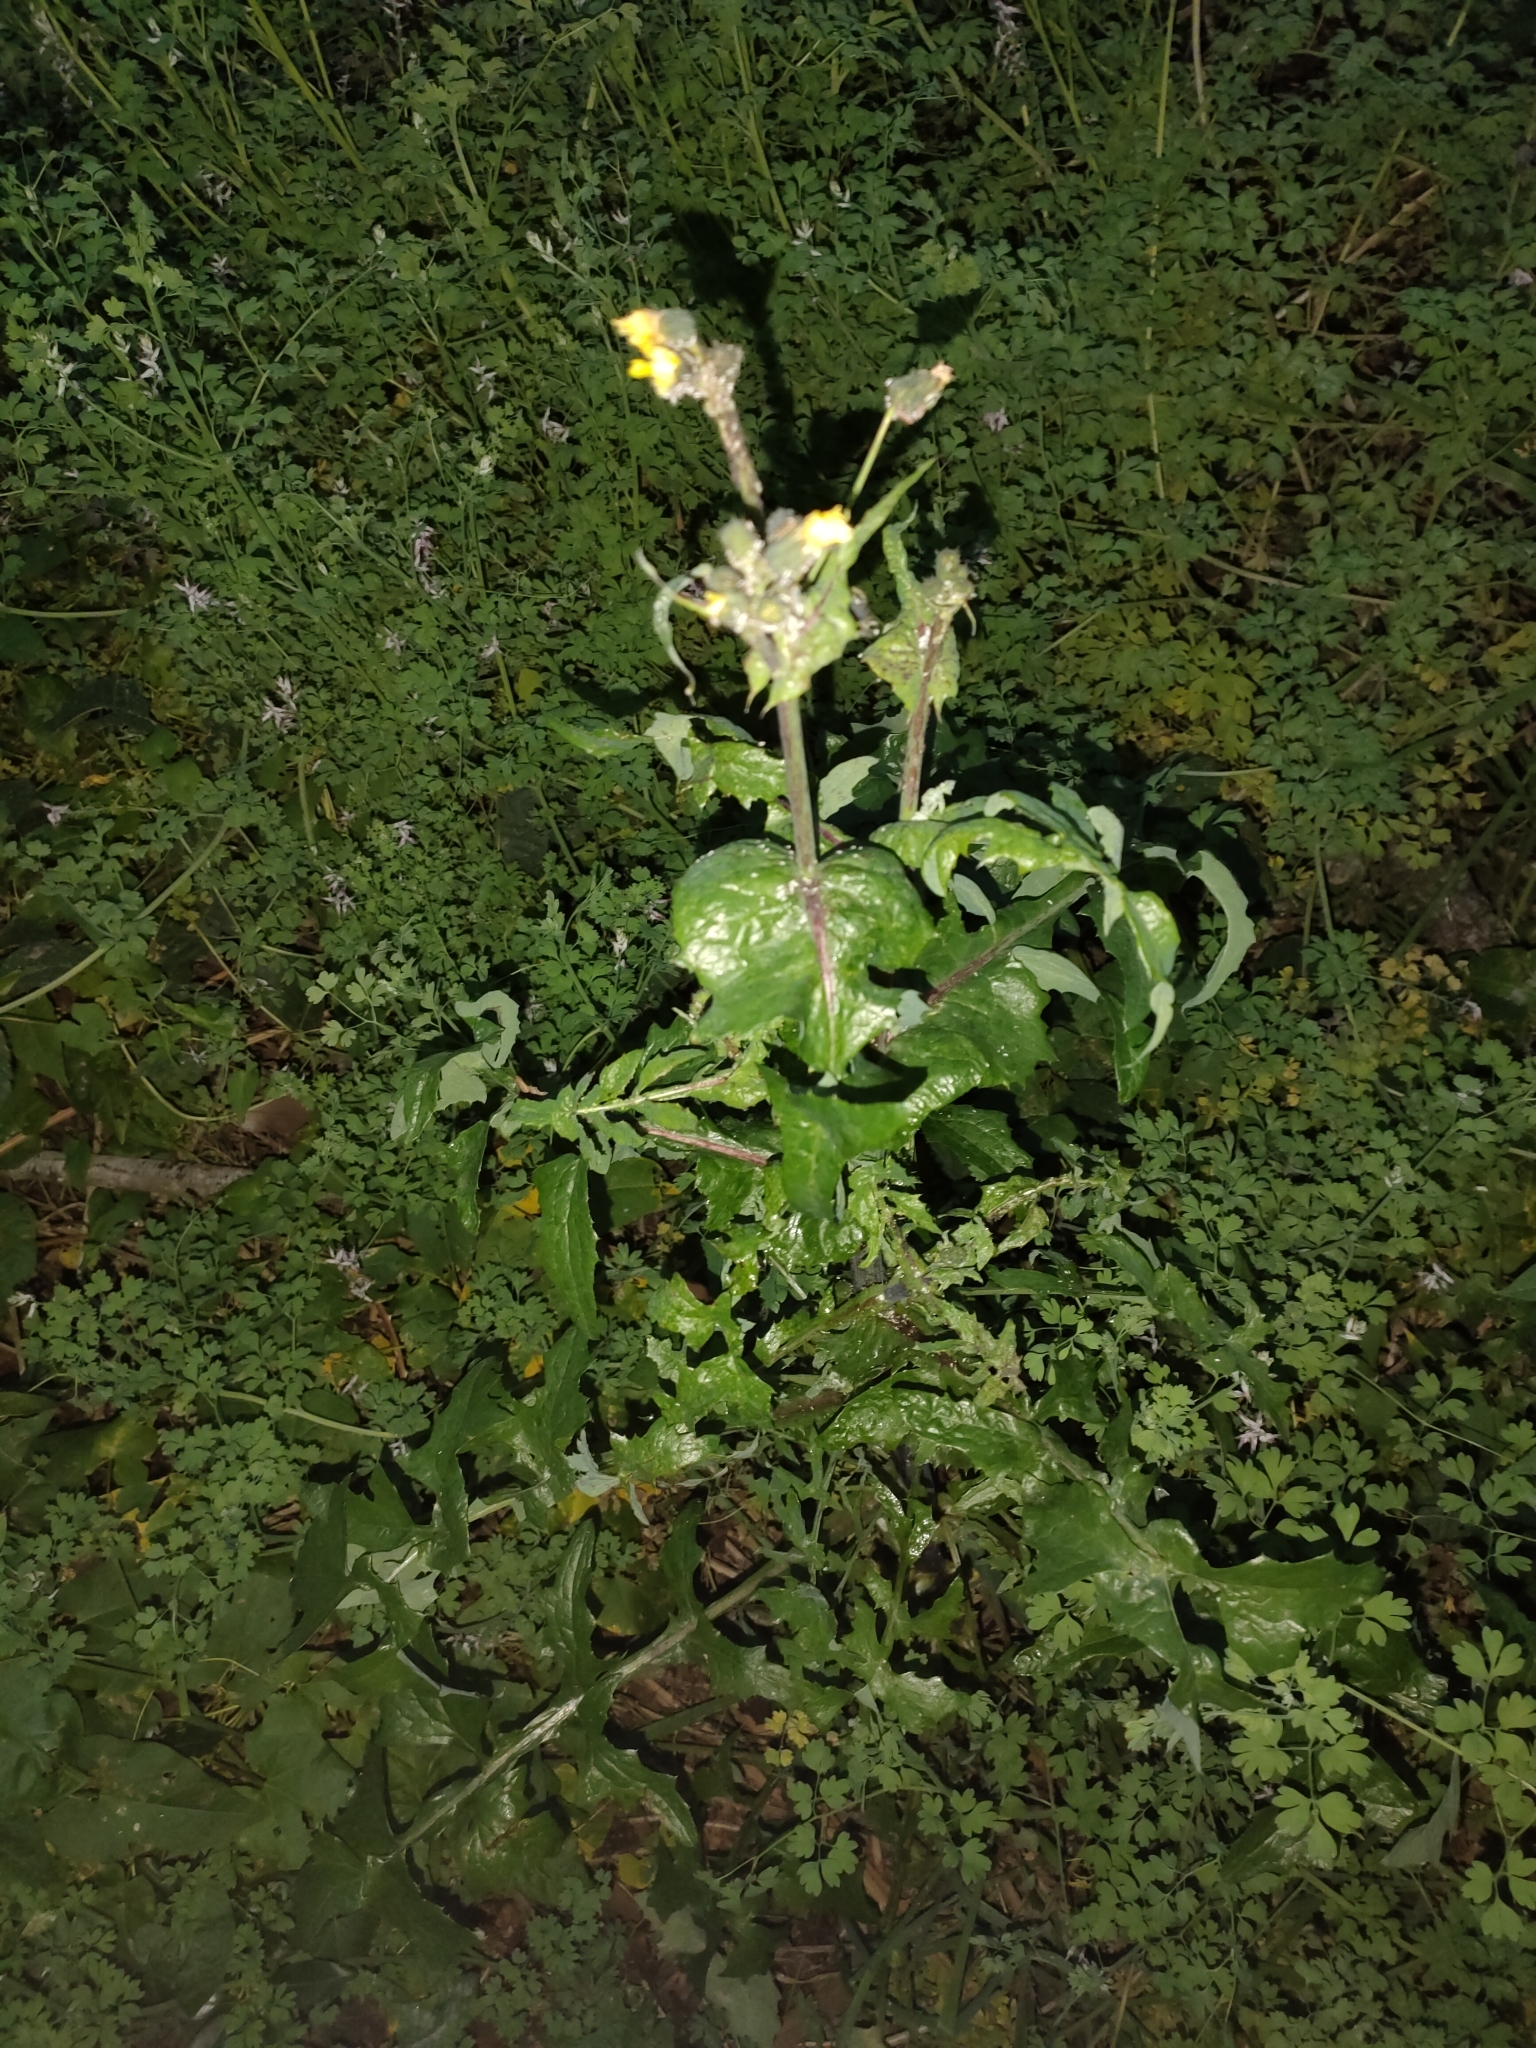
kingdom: Plantae
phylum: Tracheophyta
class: Magnoliopsida
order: Asterales
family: Asteraceae
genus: Sonchus
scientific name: Sonchus oleraceus
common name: Common sowthistle
